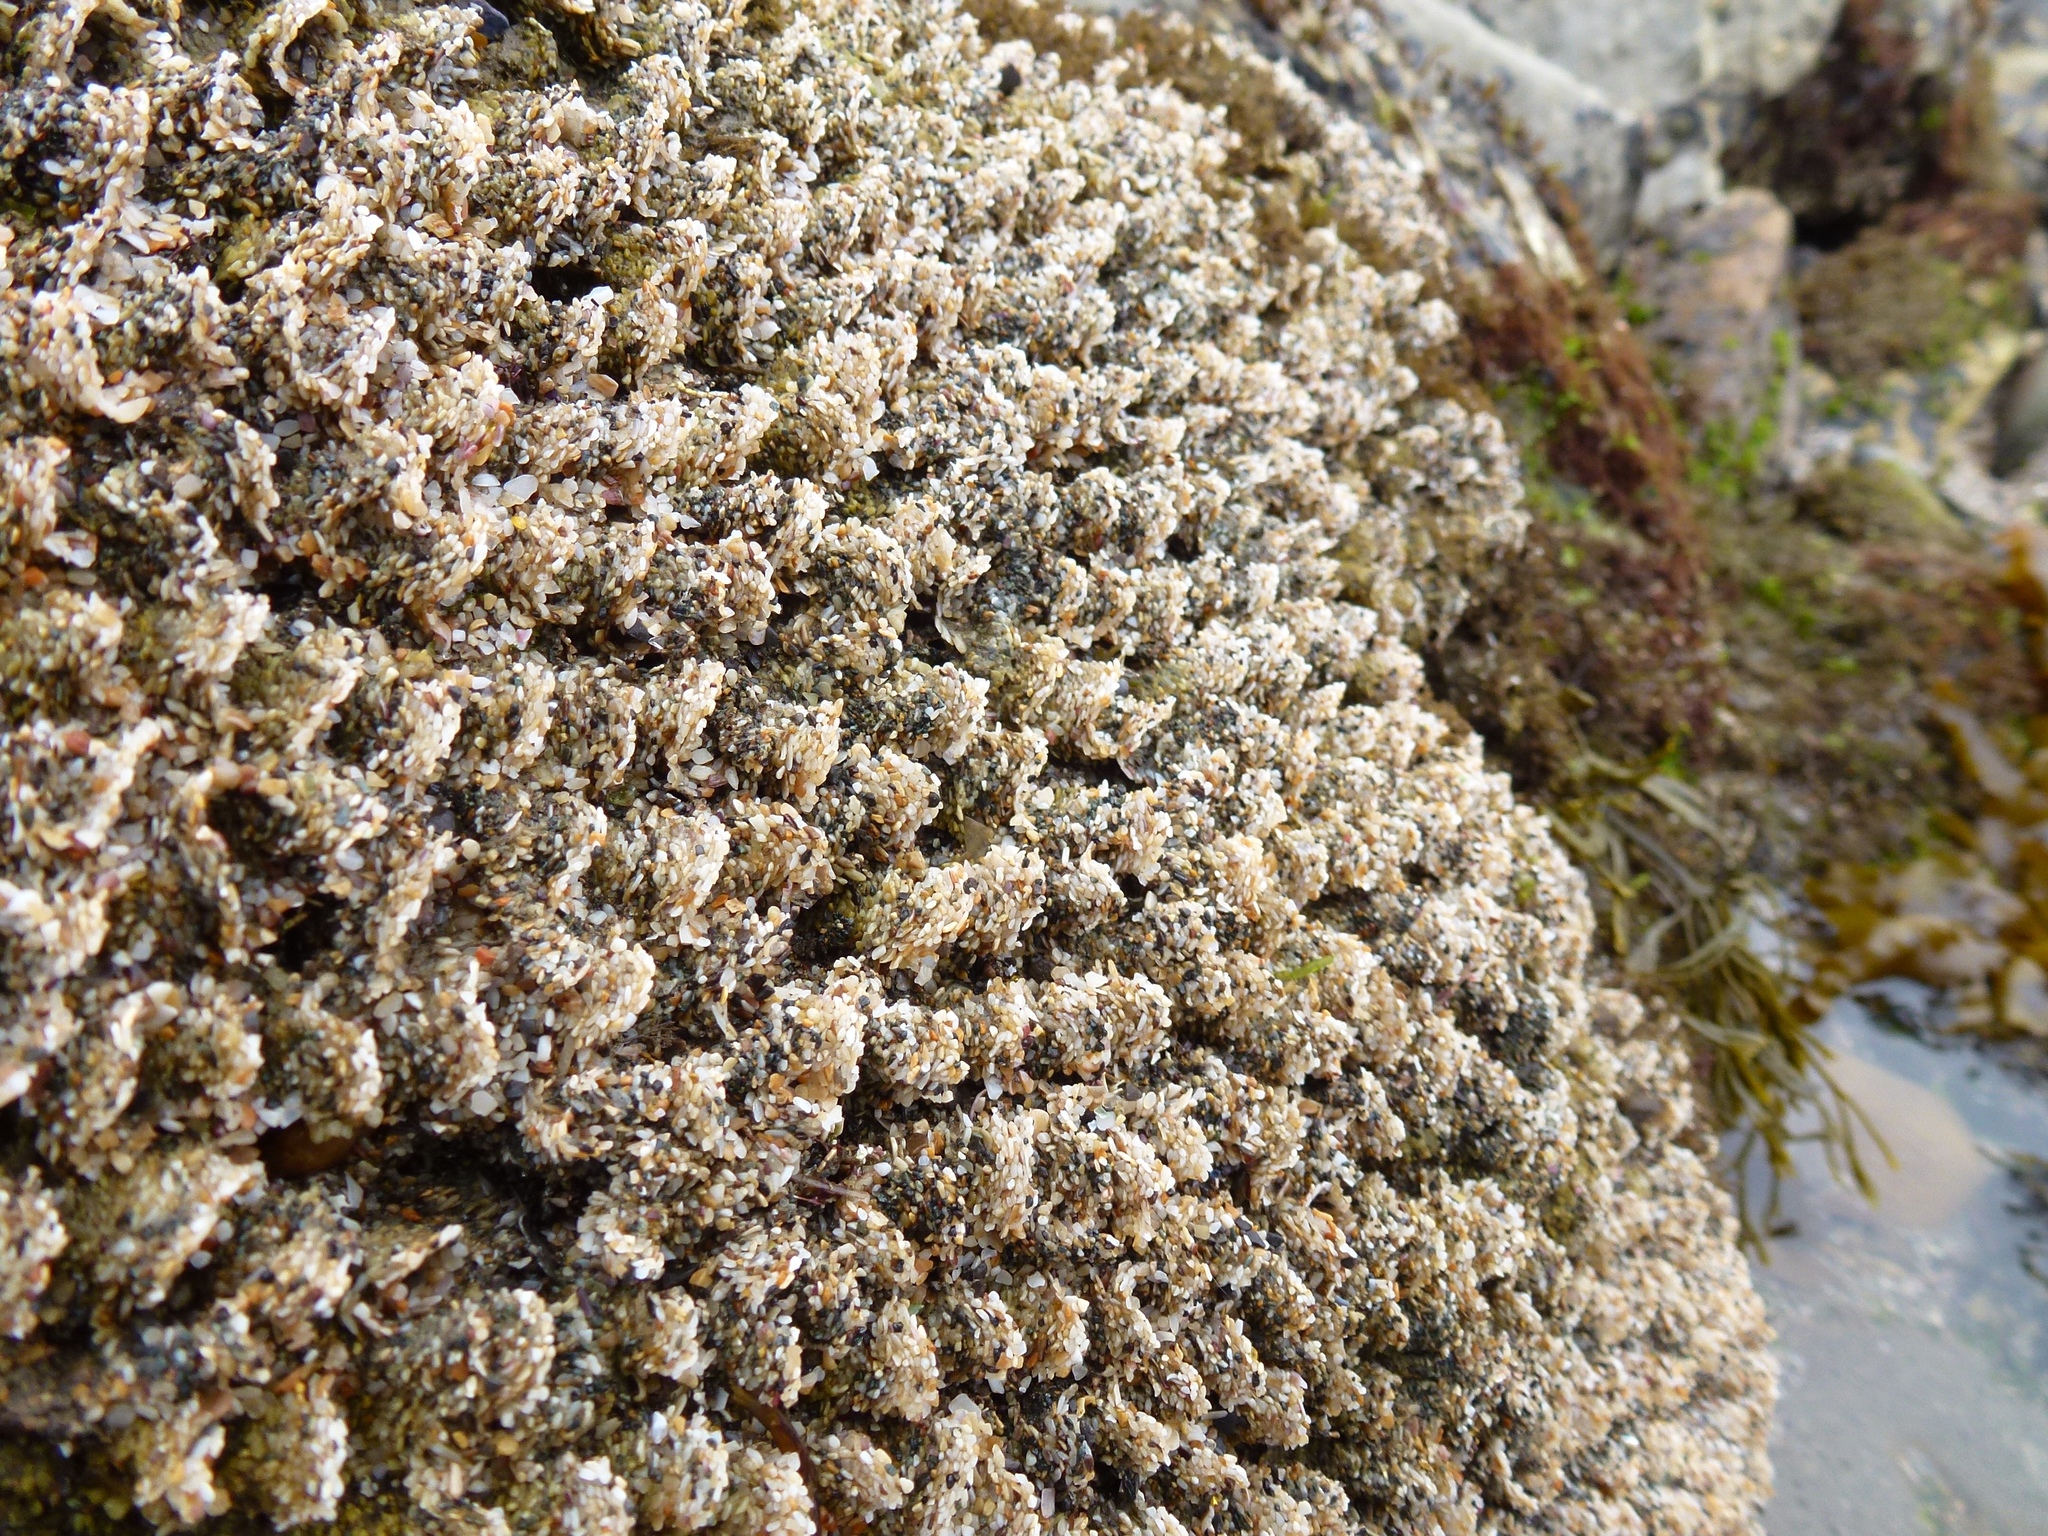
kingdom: Animalia
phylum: Annelida
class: Polychaeta
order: Sabellida
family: Sabellariidae
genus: Phragmatopoma
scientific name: Phragmatopoma californica
